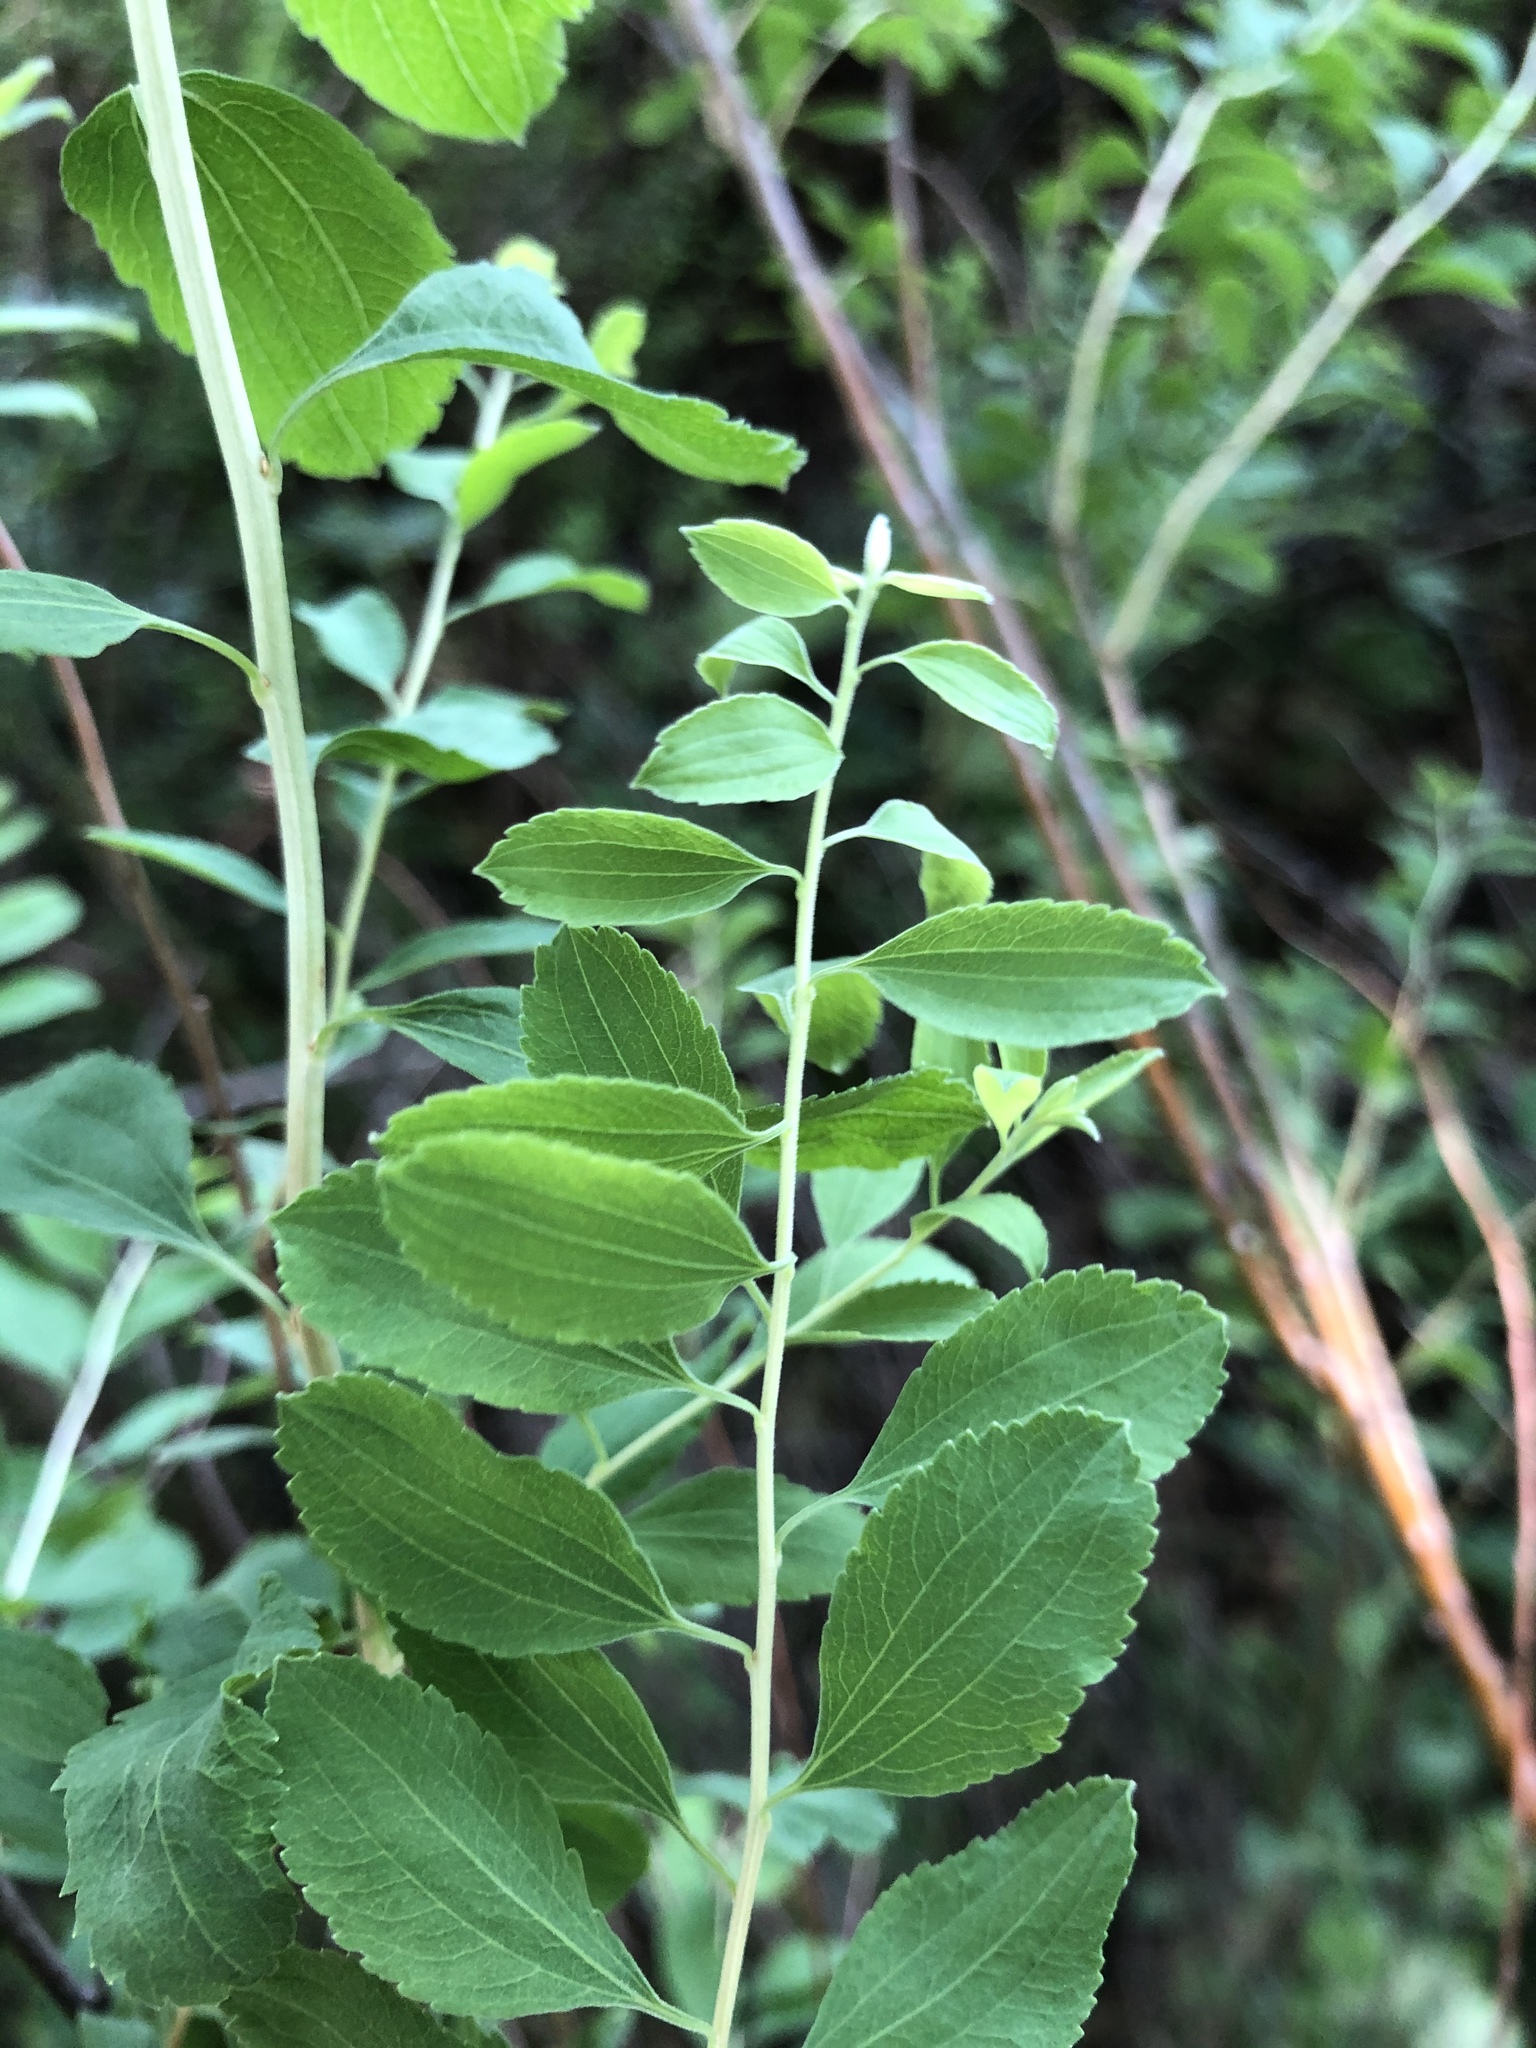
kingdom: Plantae
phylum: Tracheophyta
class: Magnoliopsida
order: Rosales
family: Rosaceae
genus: Spiraea
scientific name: Spiraea crenata
